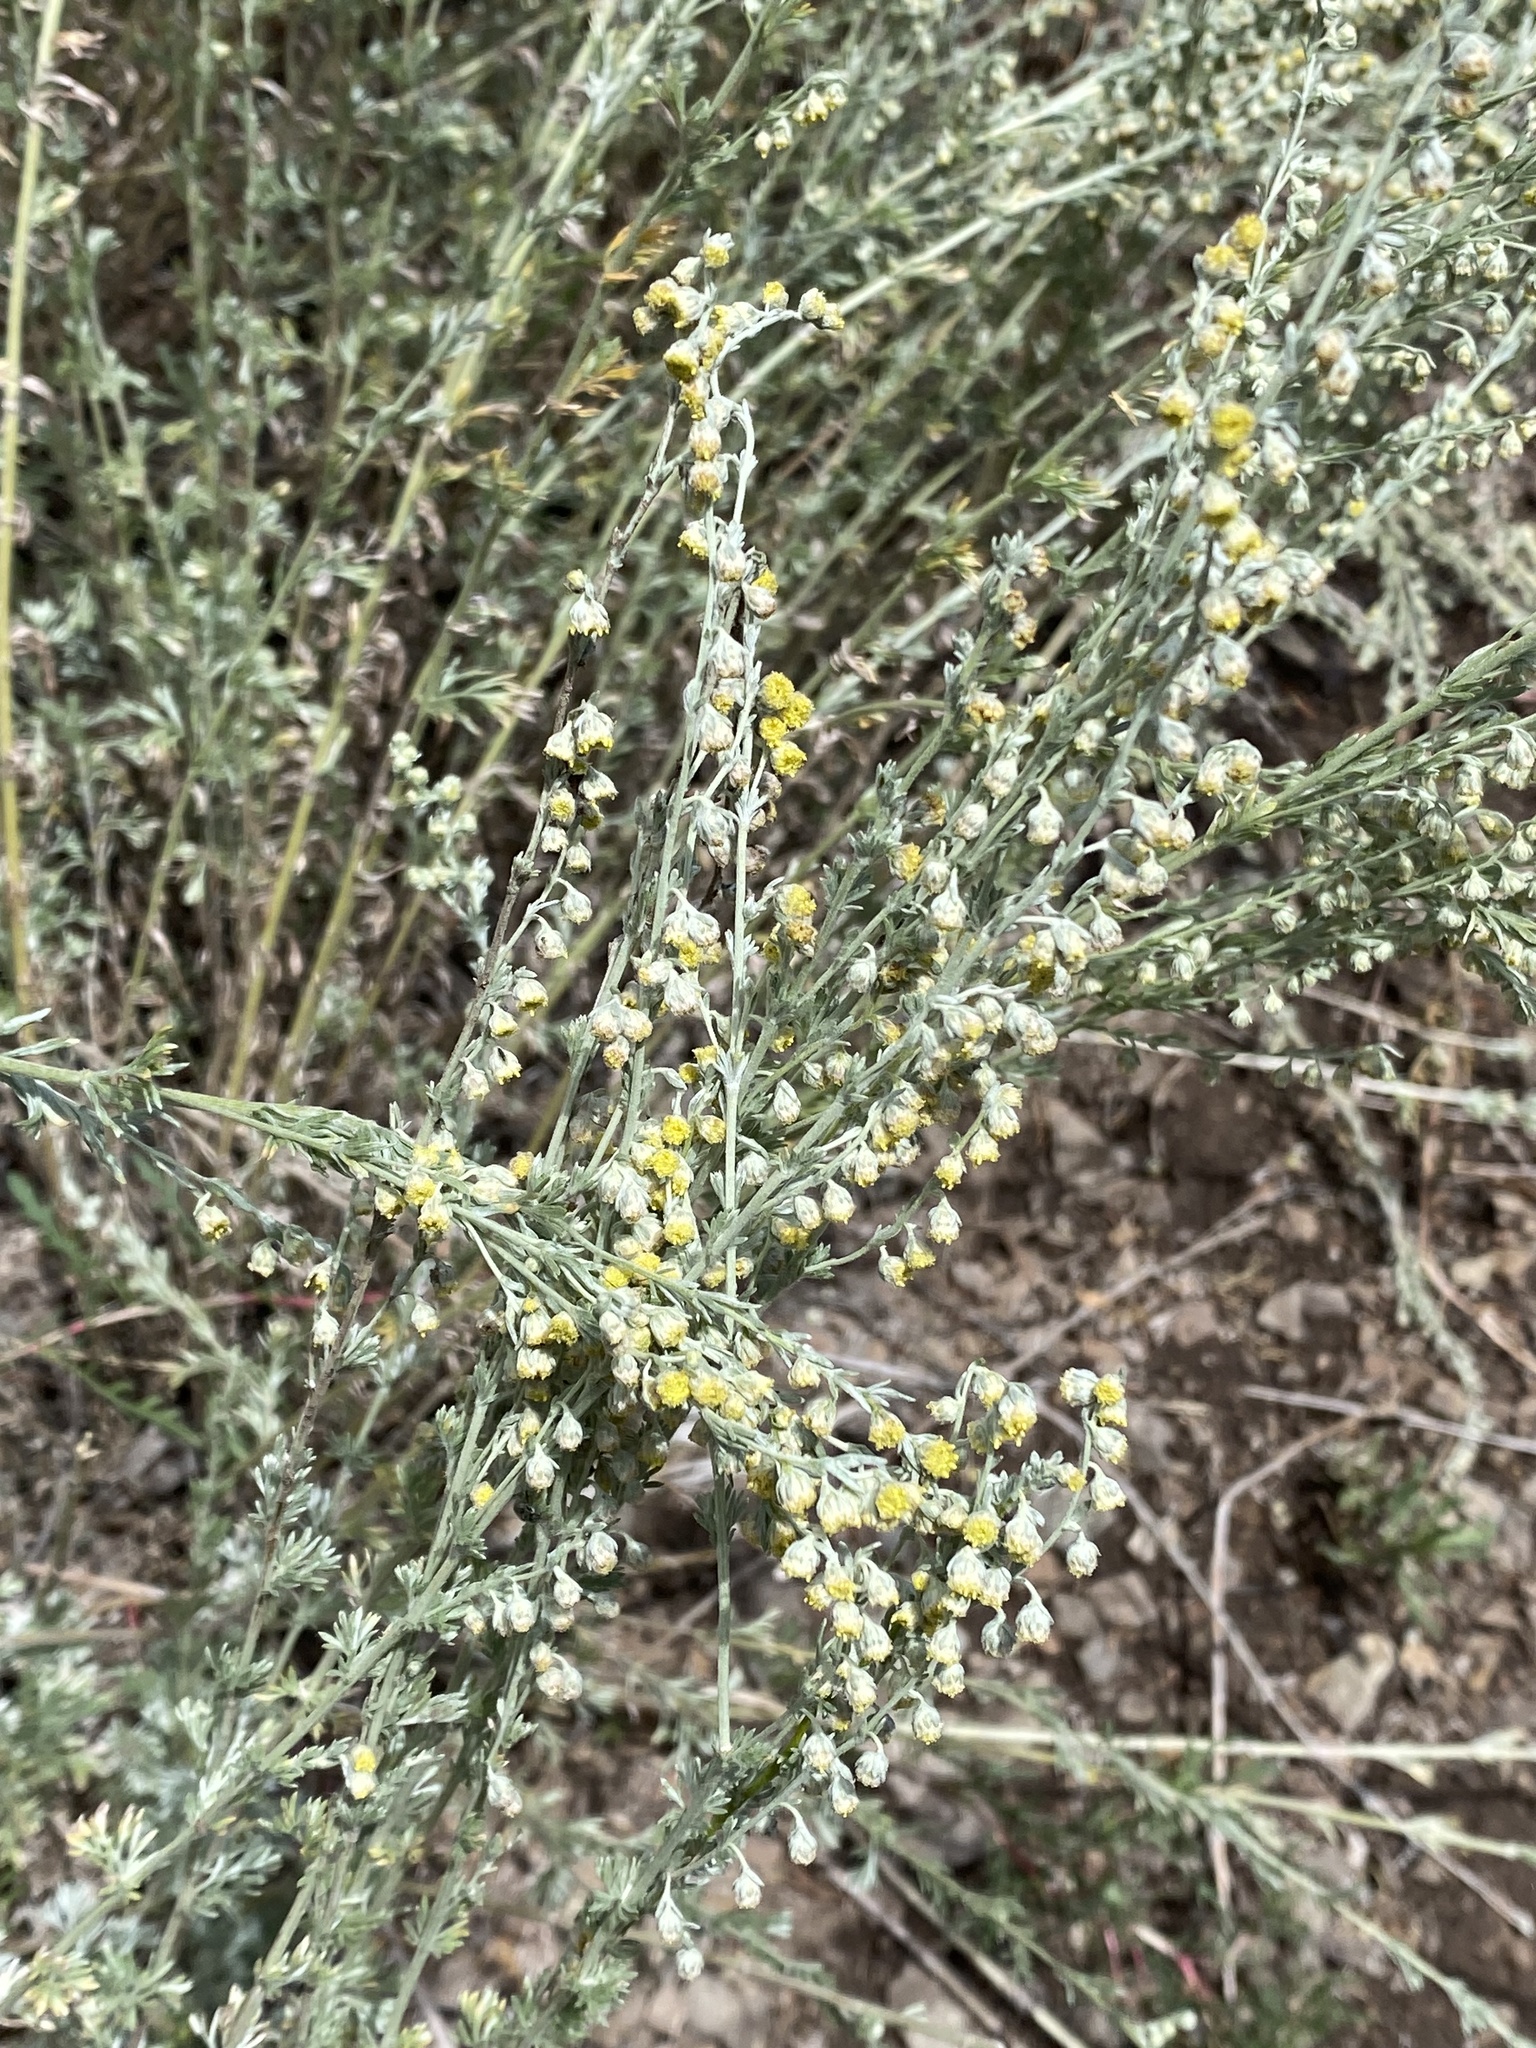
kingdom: Plantae
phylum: Tracheophyta
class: Magnoliopsida
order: Asterales
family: Asteraceae
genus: Artemisia
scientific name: Artemisia frigida
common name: Prairie sagewort
